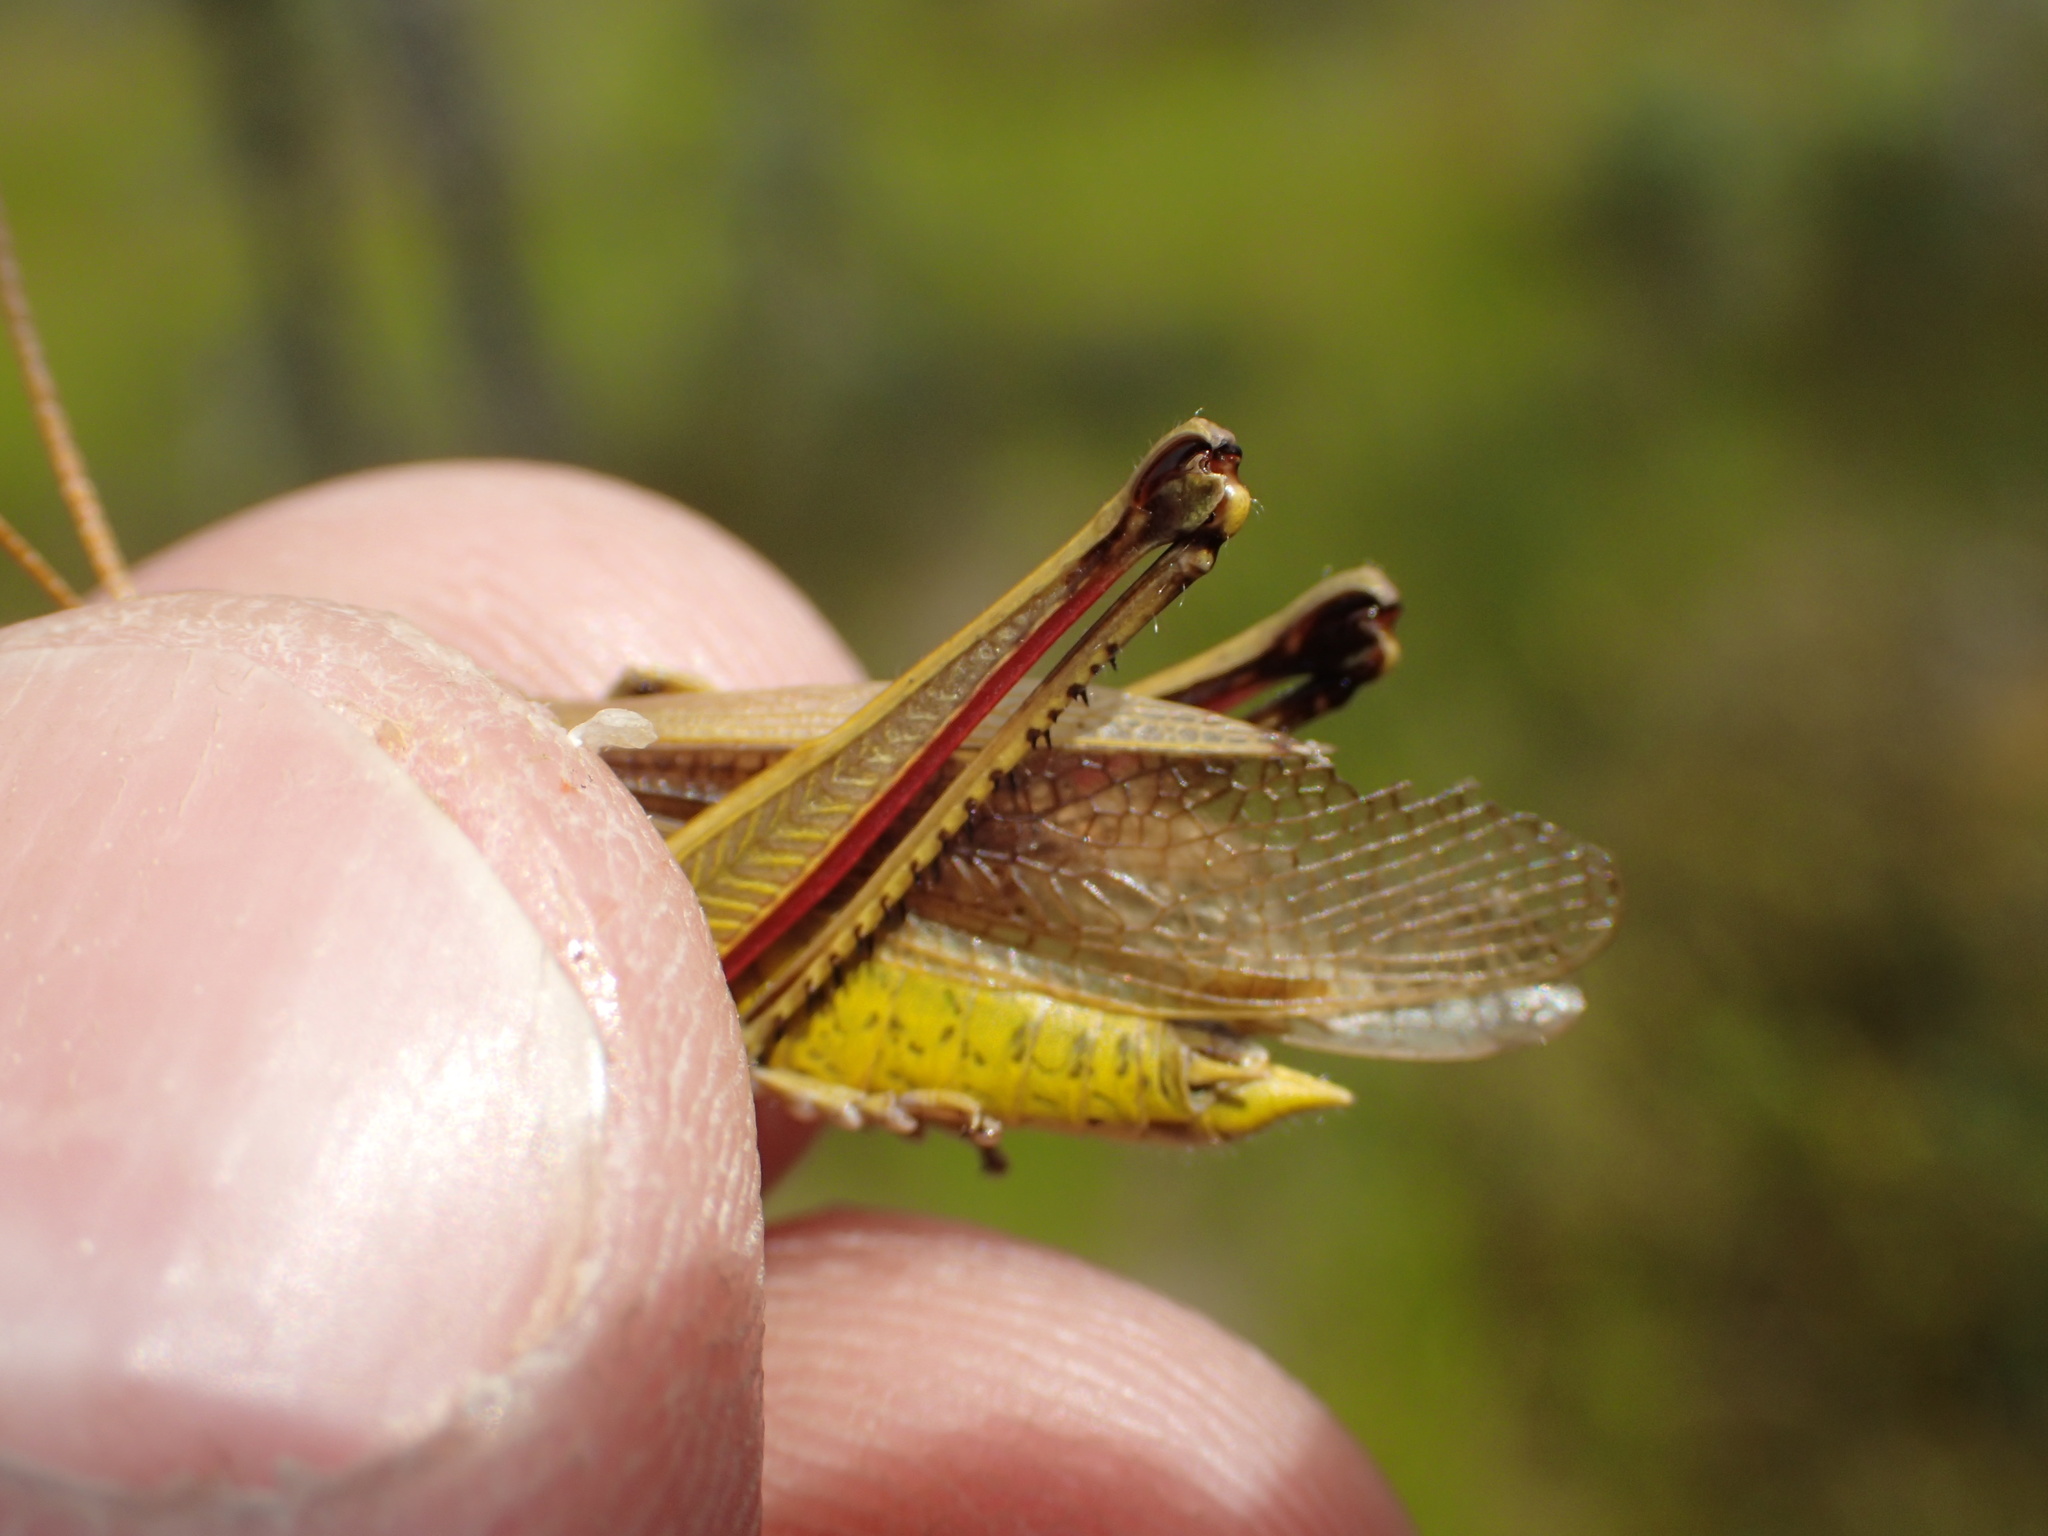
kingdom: Animalia
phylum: Arthropoda
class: Insecta
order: Orthoptera
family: Acrididae
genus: Stethophyma
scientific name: Stethophyma gracile
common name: Graceful sedge grasshopper
